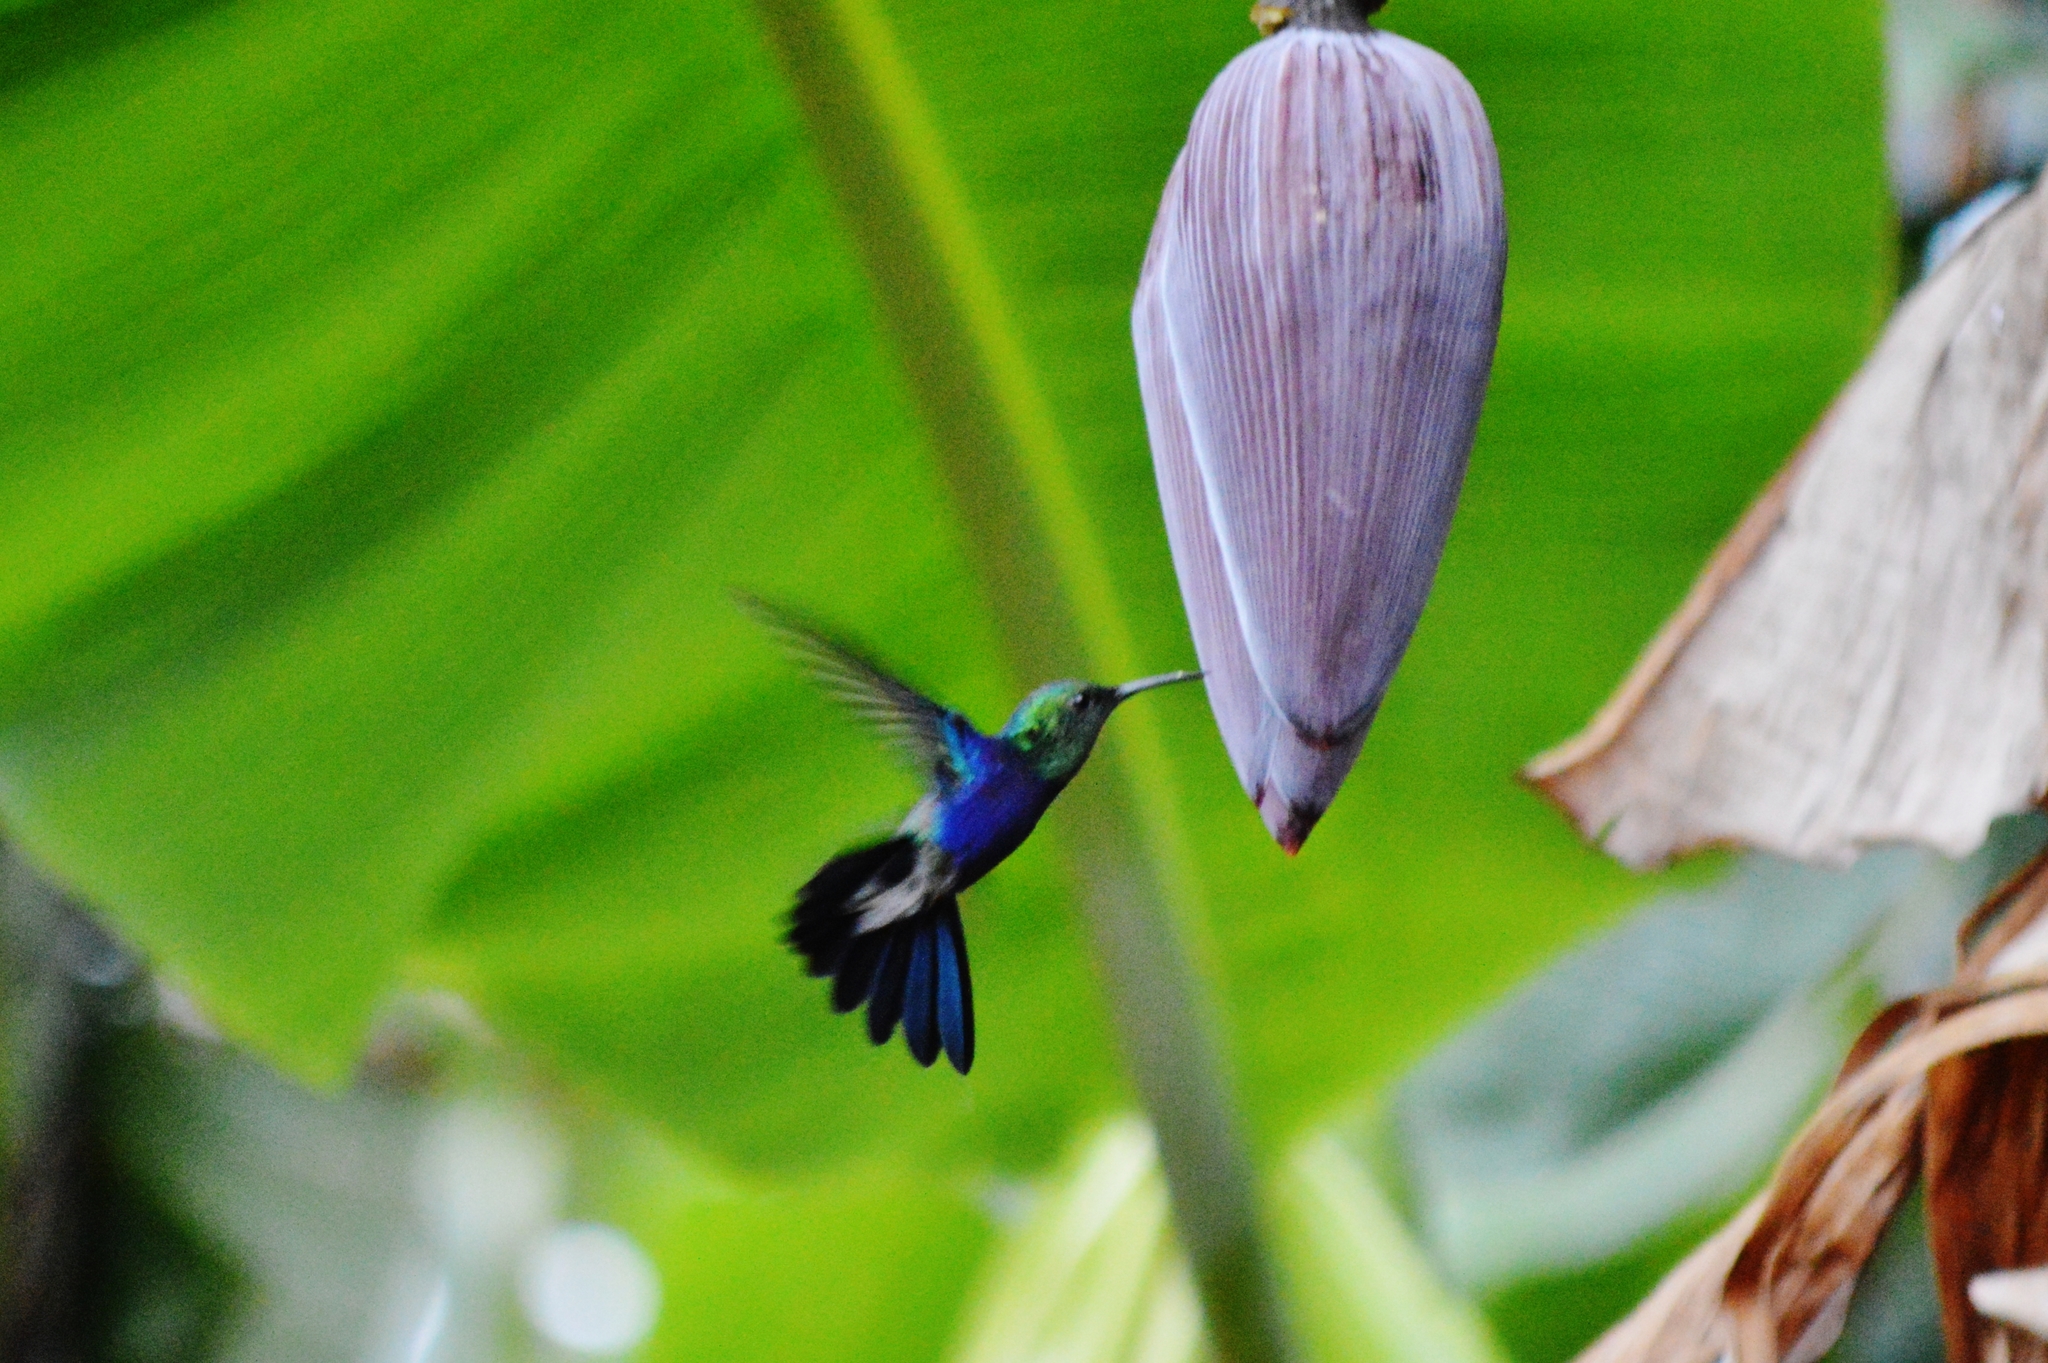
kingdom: Animalia
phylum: Chordata
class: Aves
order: Apodiformes
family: Trochilidae
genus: Thalurania
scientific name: Thalurania furcata
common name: Fork-tailed woodnymph
